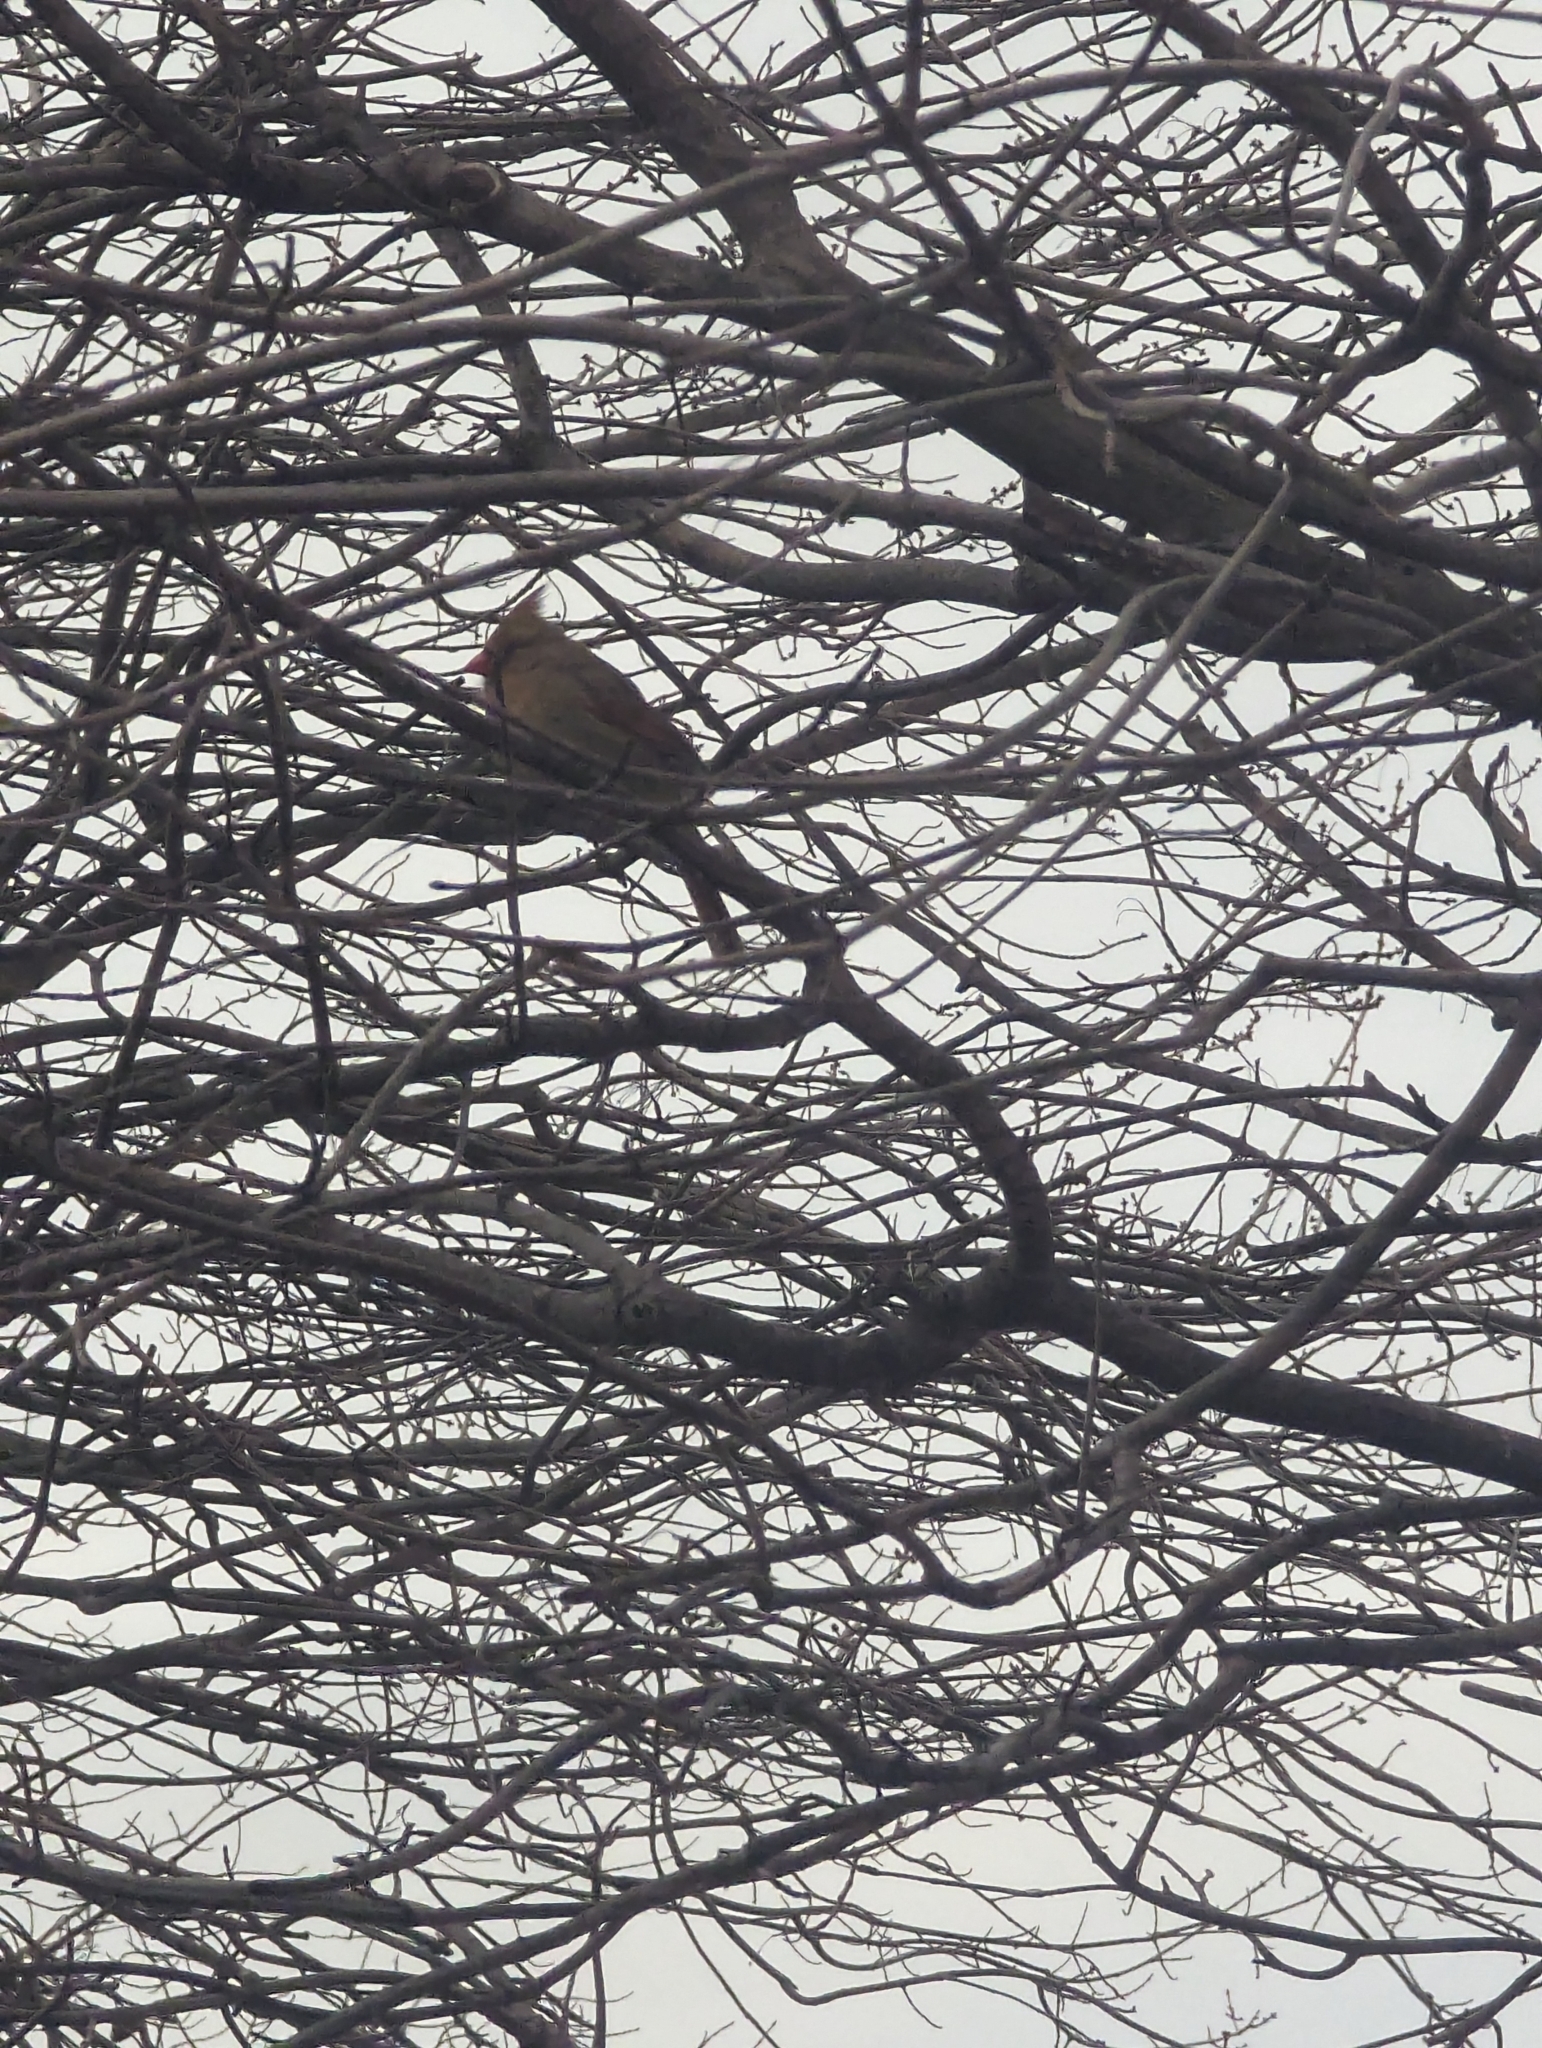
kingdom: Animalia
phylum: Chordata
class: Aves
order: Passeriformes
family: Cardinalidae
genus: Cardinalis
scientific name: Cardinalis cardinalis
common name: Northern cardinal
